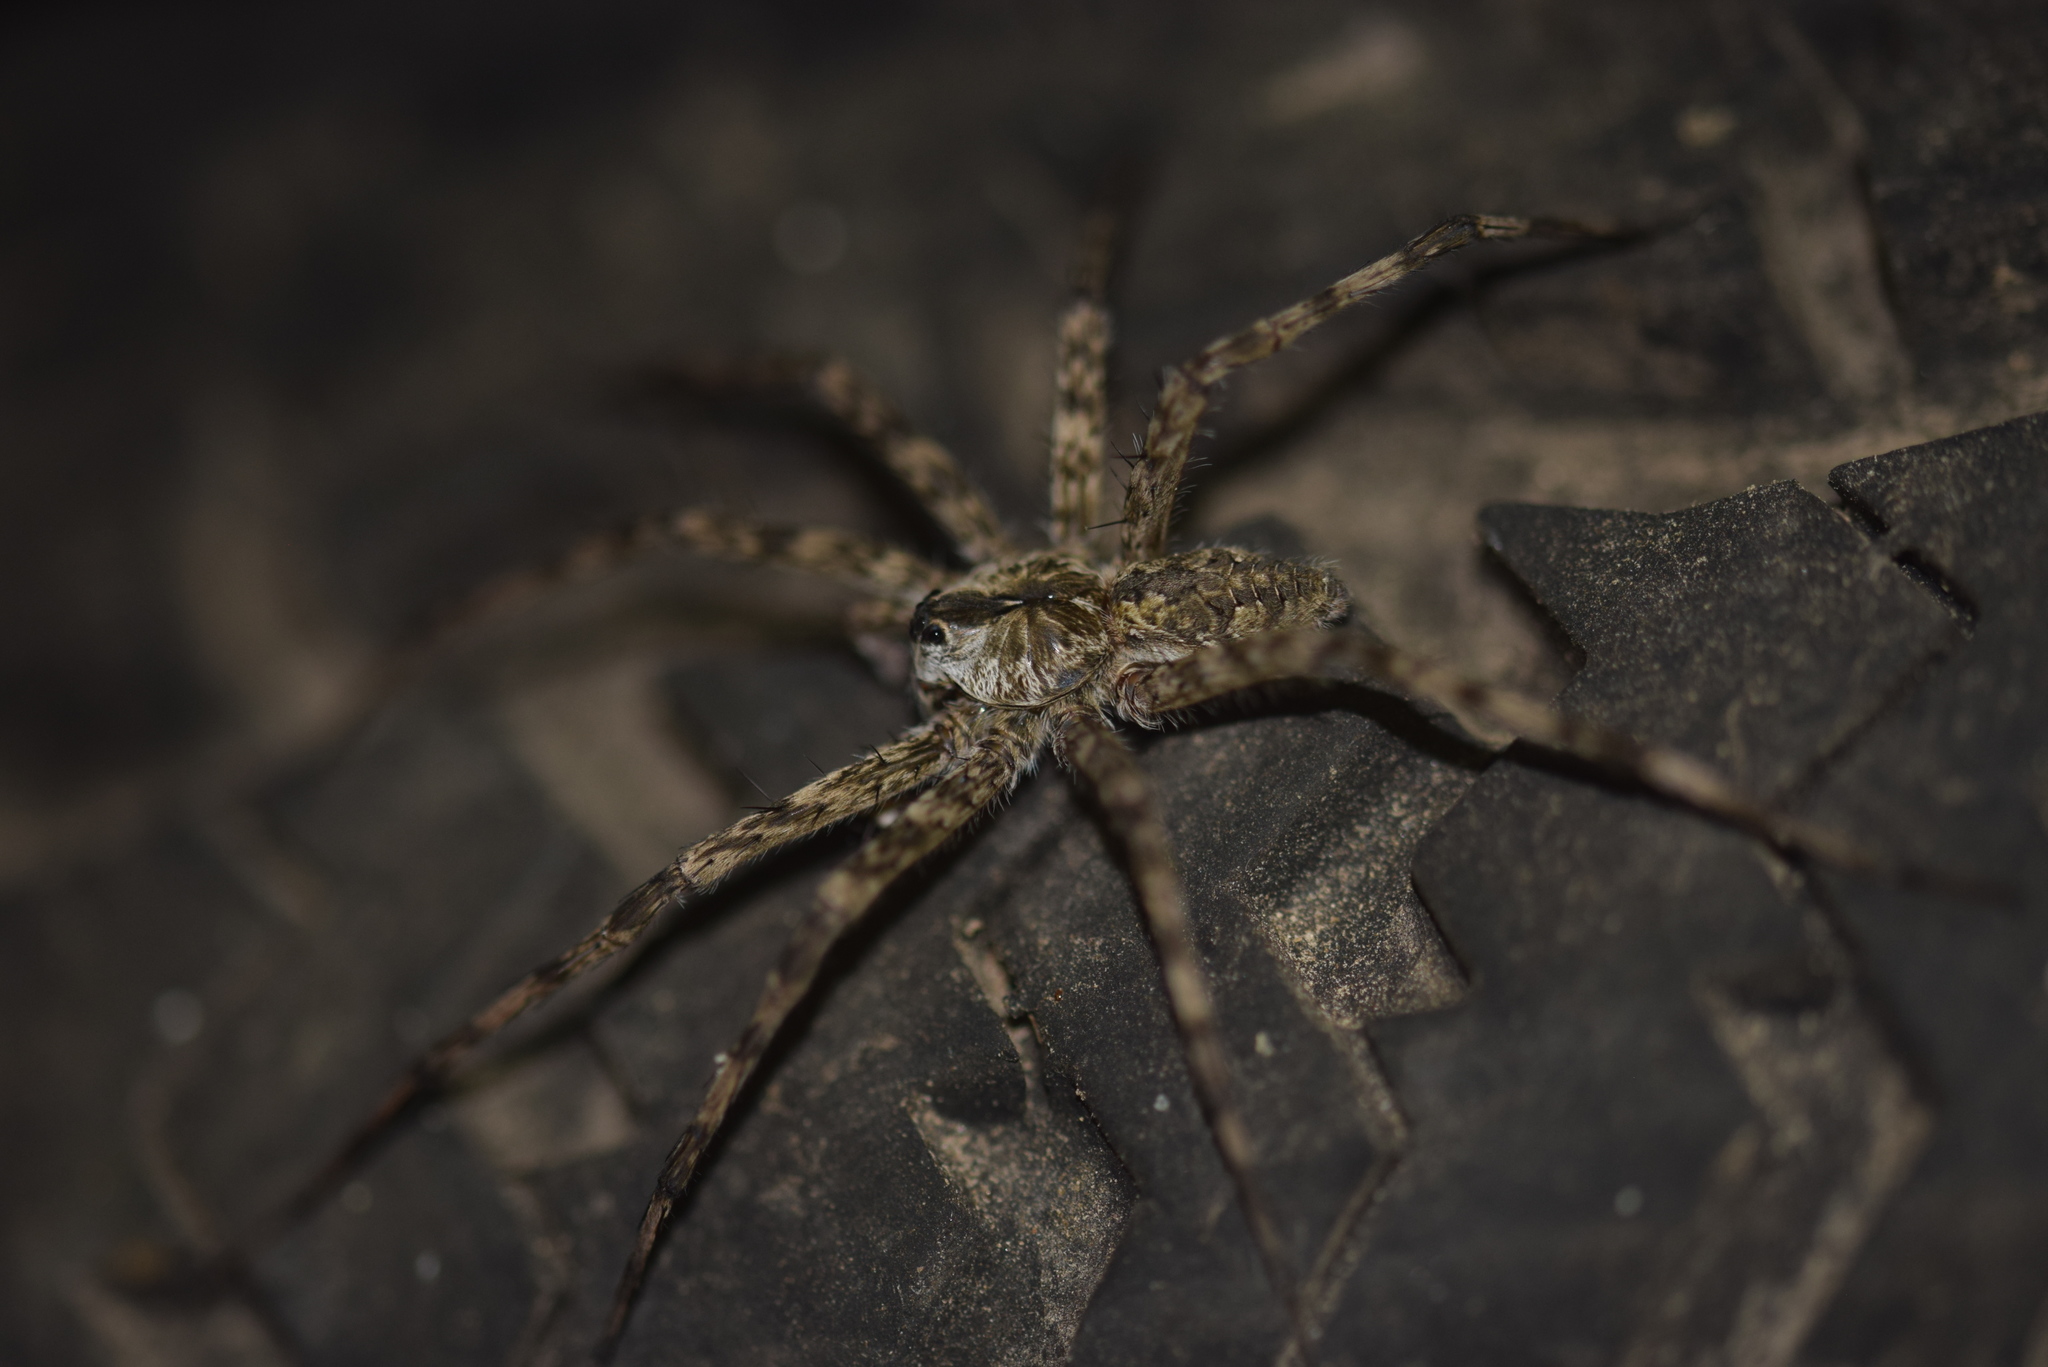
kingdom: Animalia
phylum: Arthropoda
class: Arachnida
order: Araneae
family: Pisauridae
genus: Dolomedes
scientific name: Dolomedes albineus
